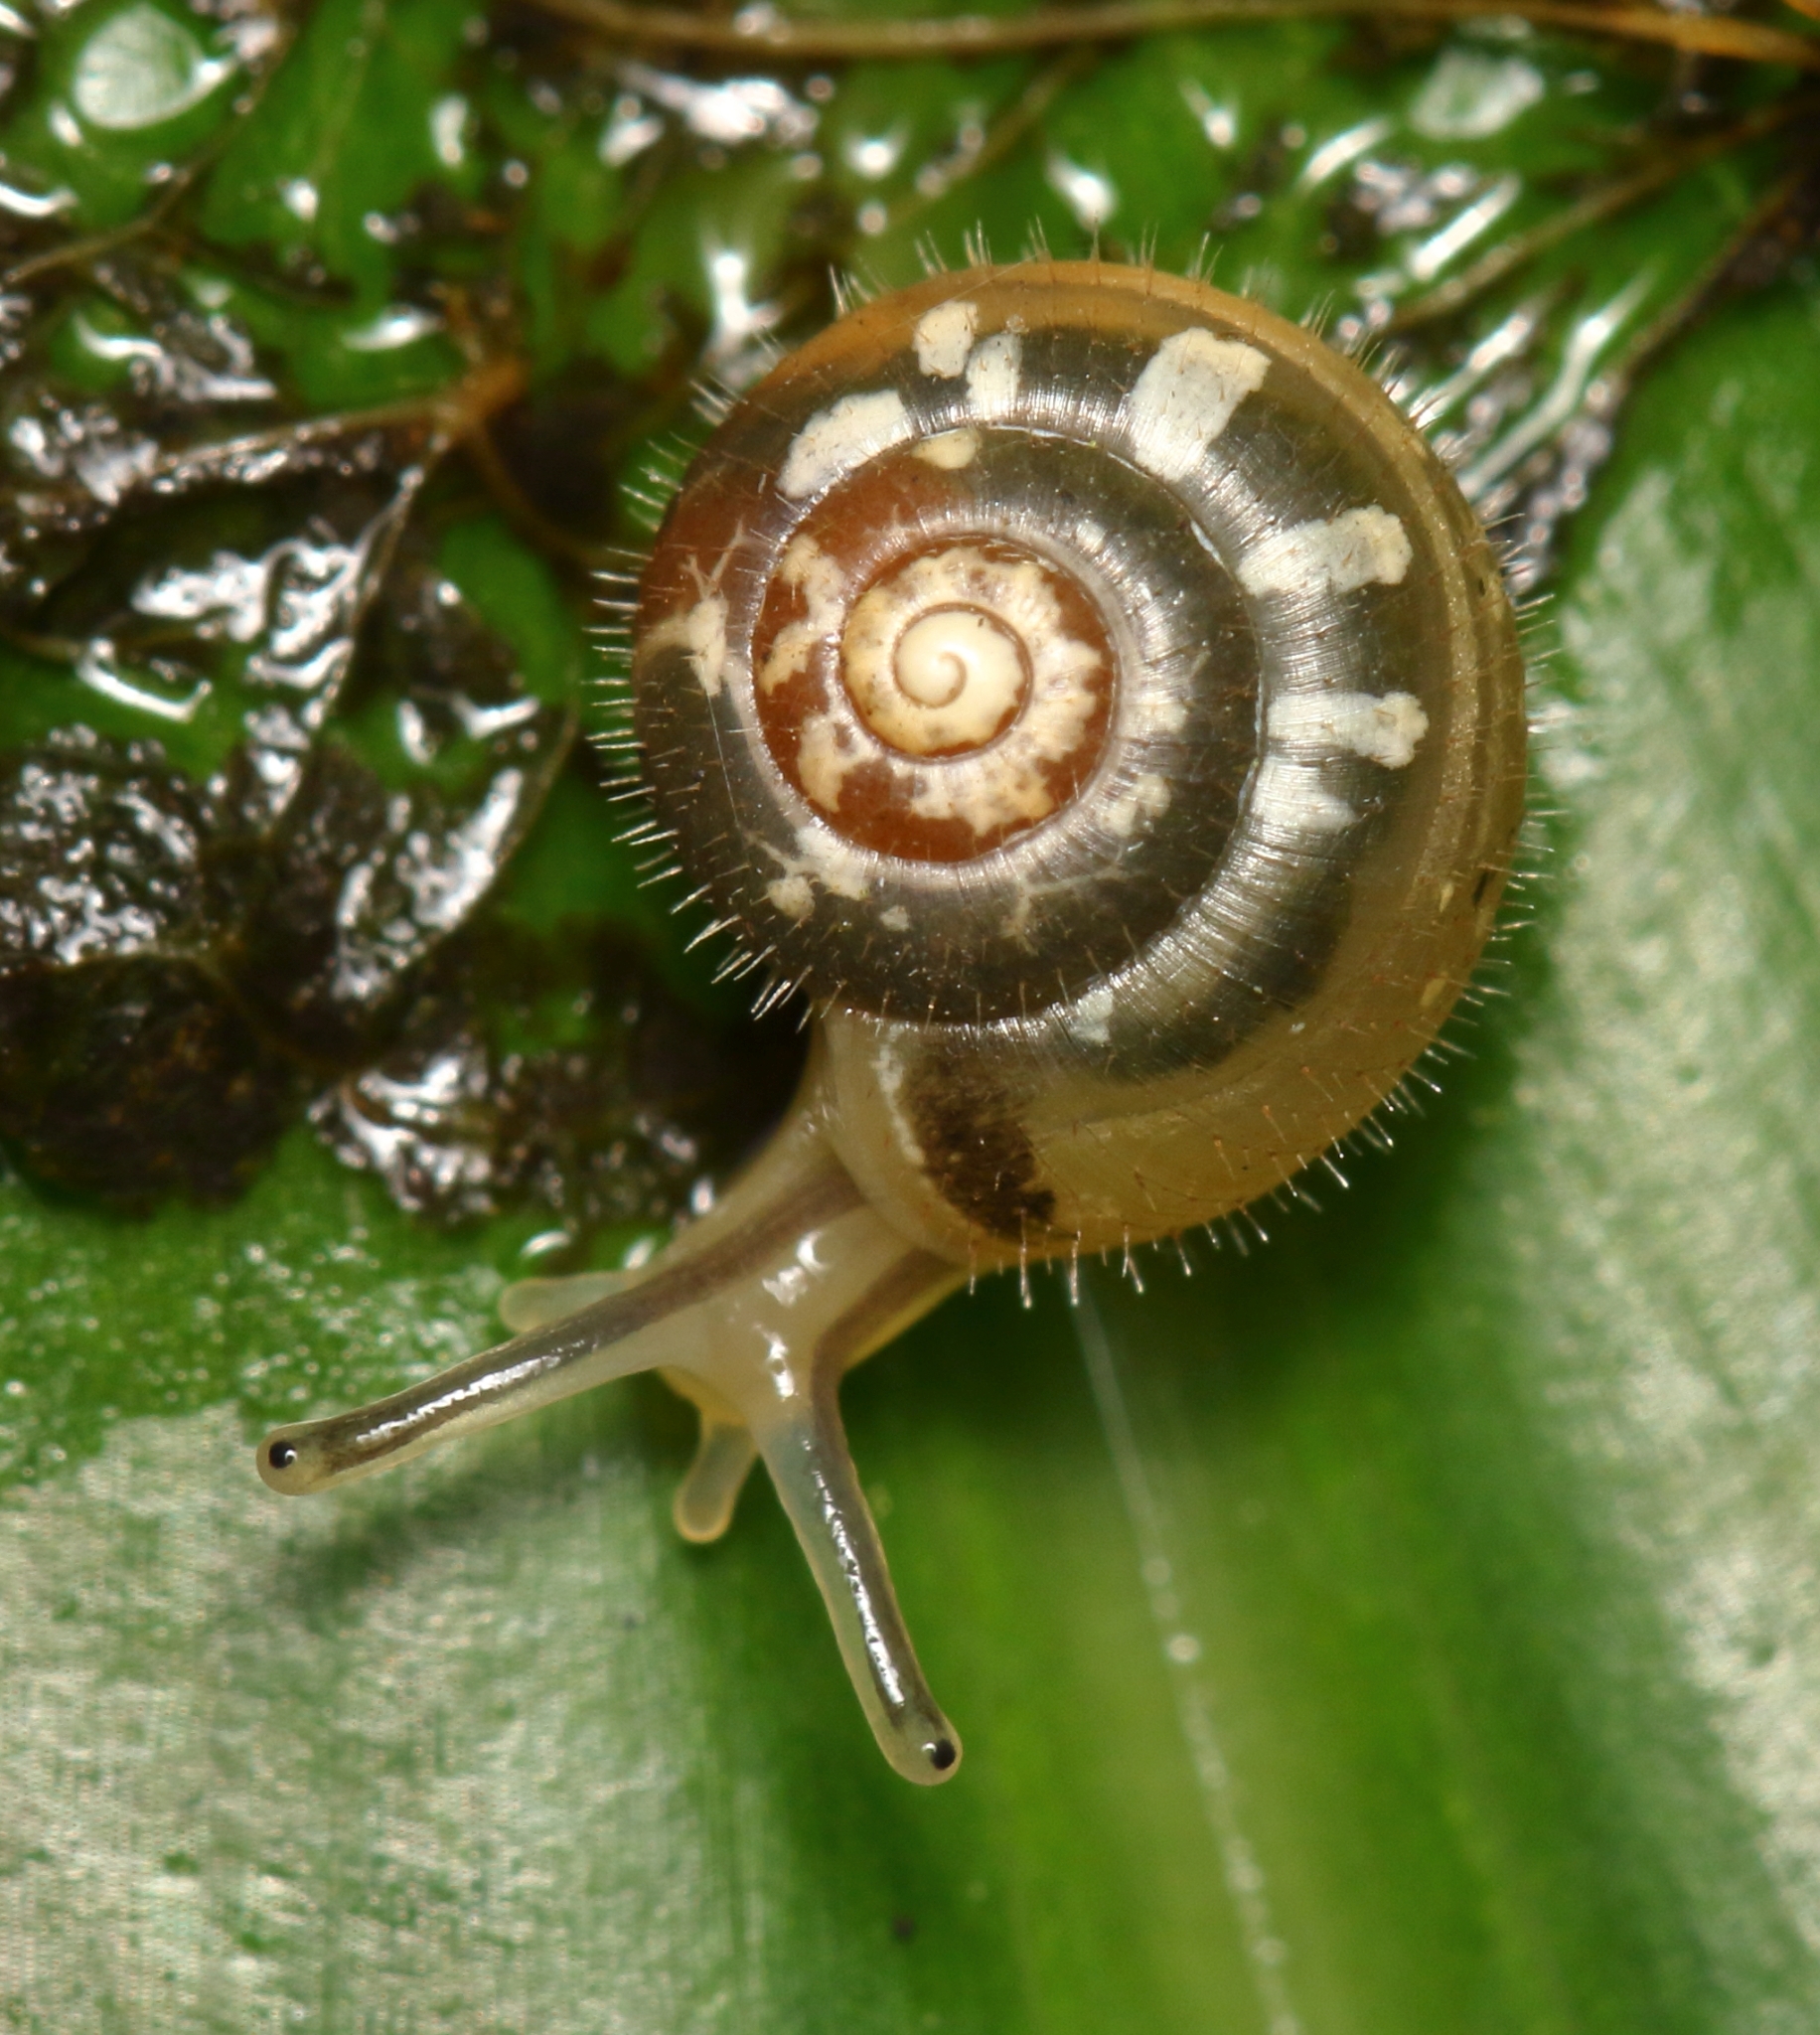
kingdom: Animalia
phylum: Mollusca
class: Gastropoda
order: Stylommatophora
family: Charopidae
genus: Chilocystis
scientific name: Chilocystis conisalea
